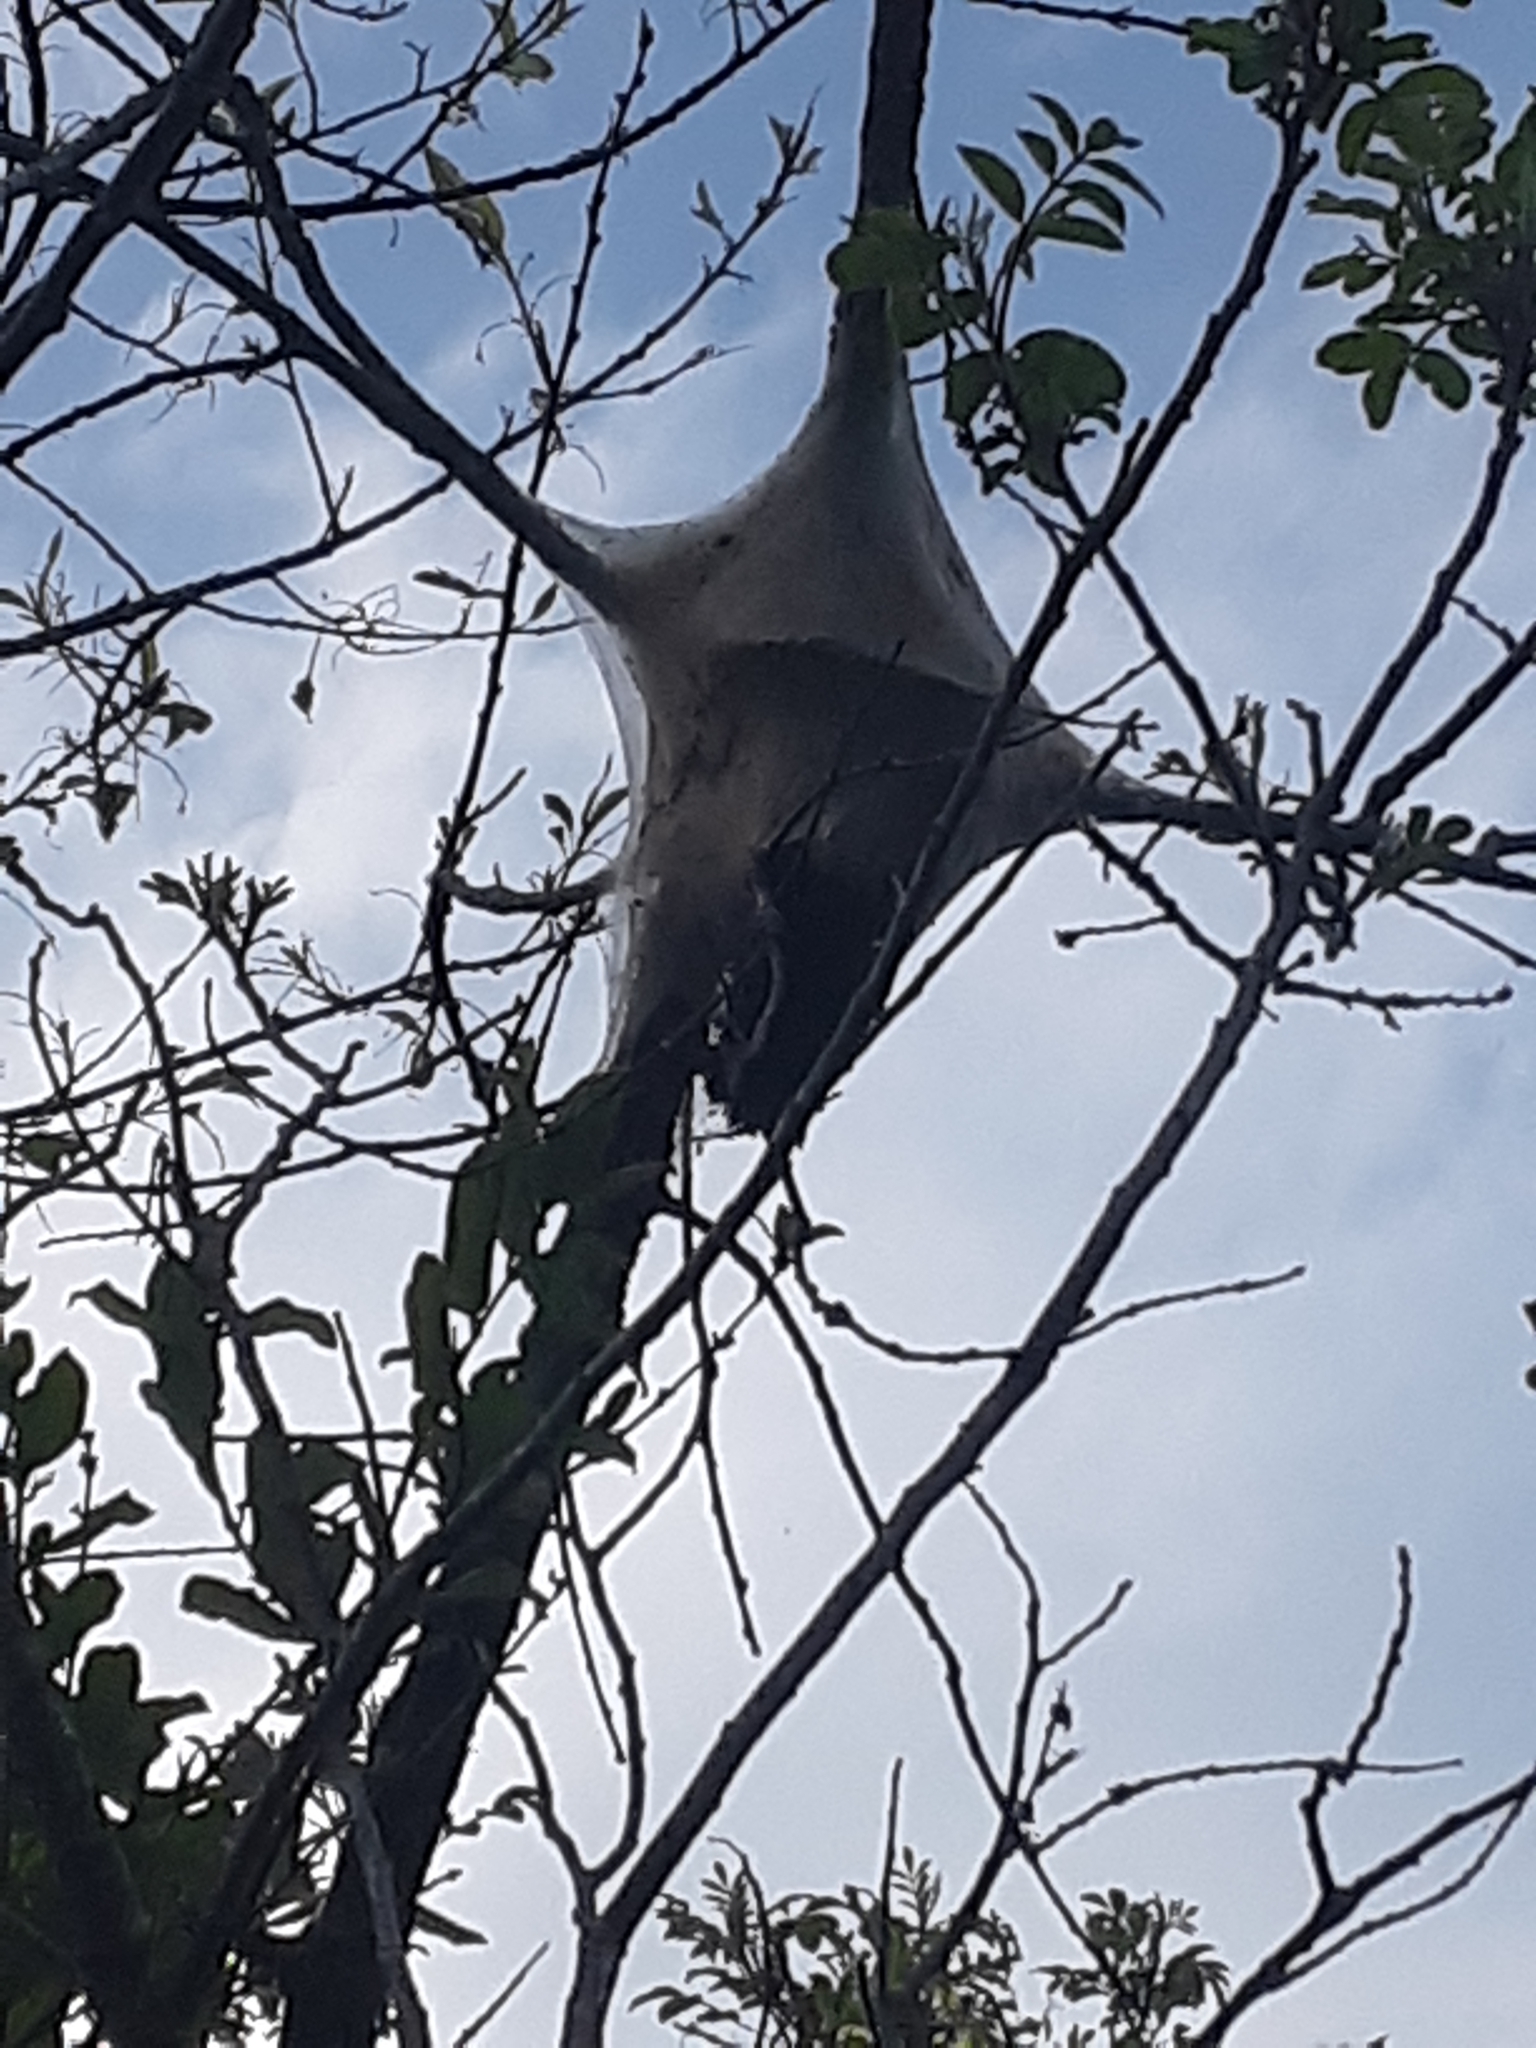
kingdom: Animalia
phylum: Arthropoda
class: Insecta
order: Lepidoptera
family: Lasiocampidae
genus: Malacosoma
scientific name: Malacosoma americana
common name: Eastern tent caterpillar moth
